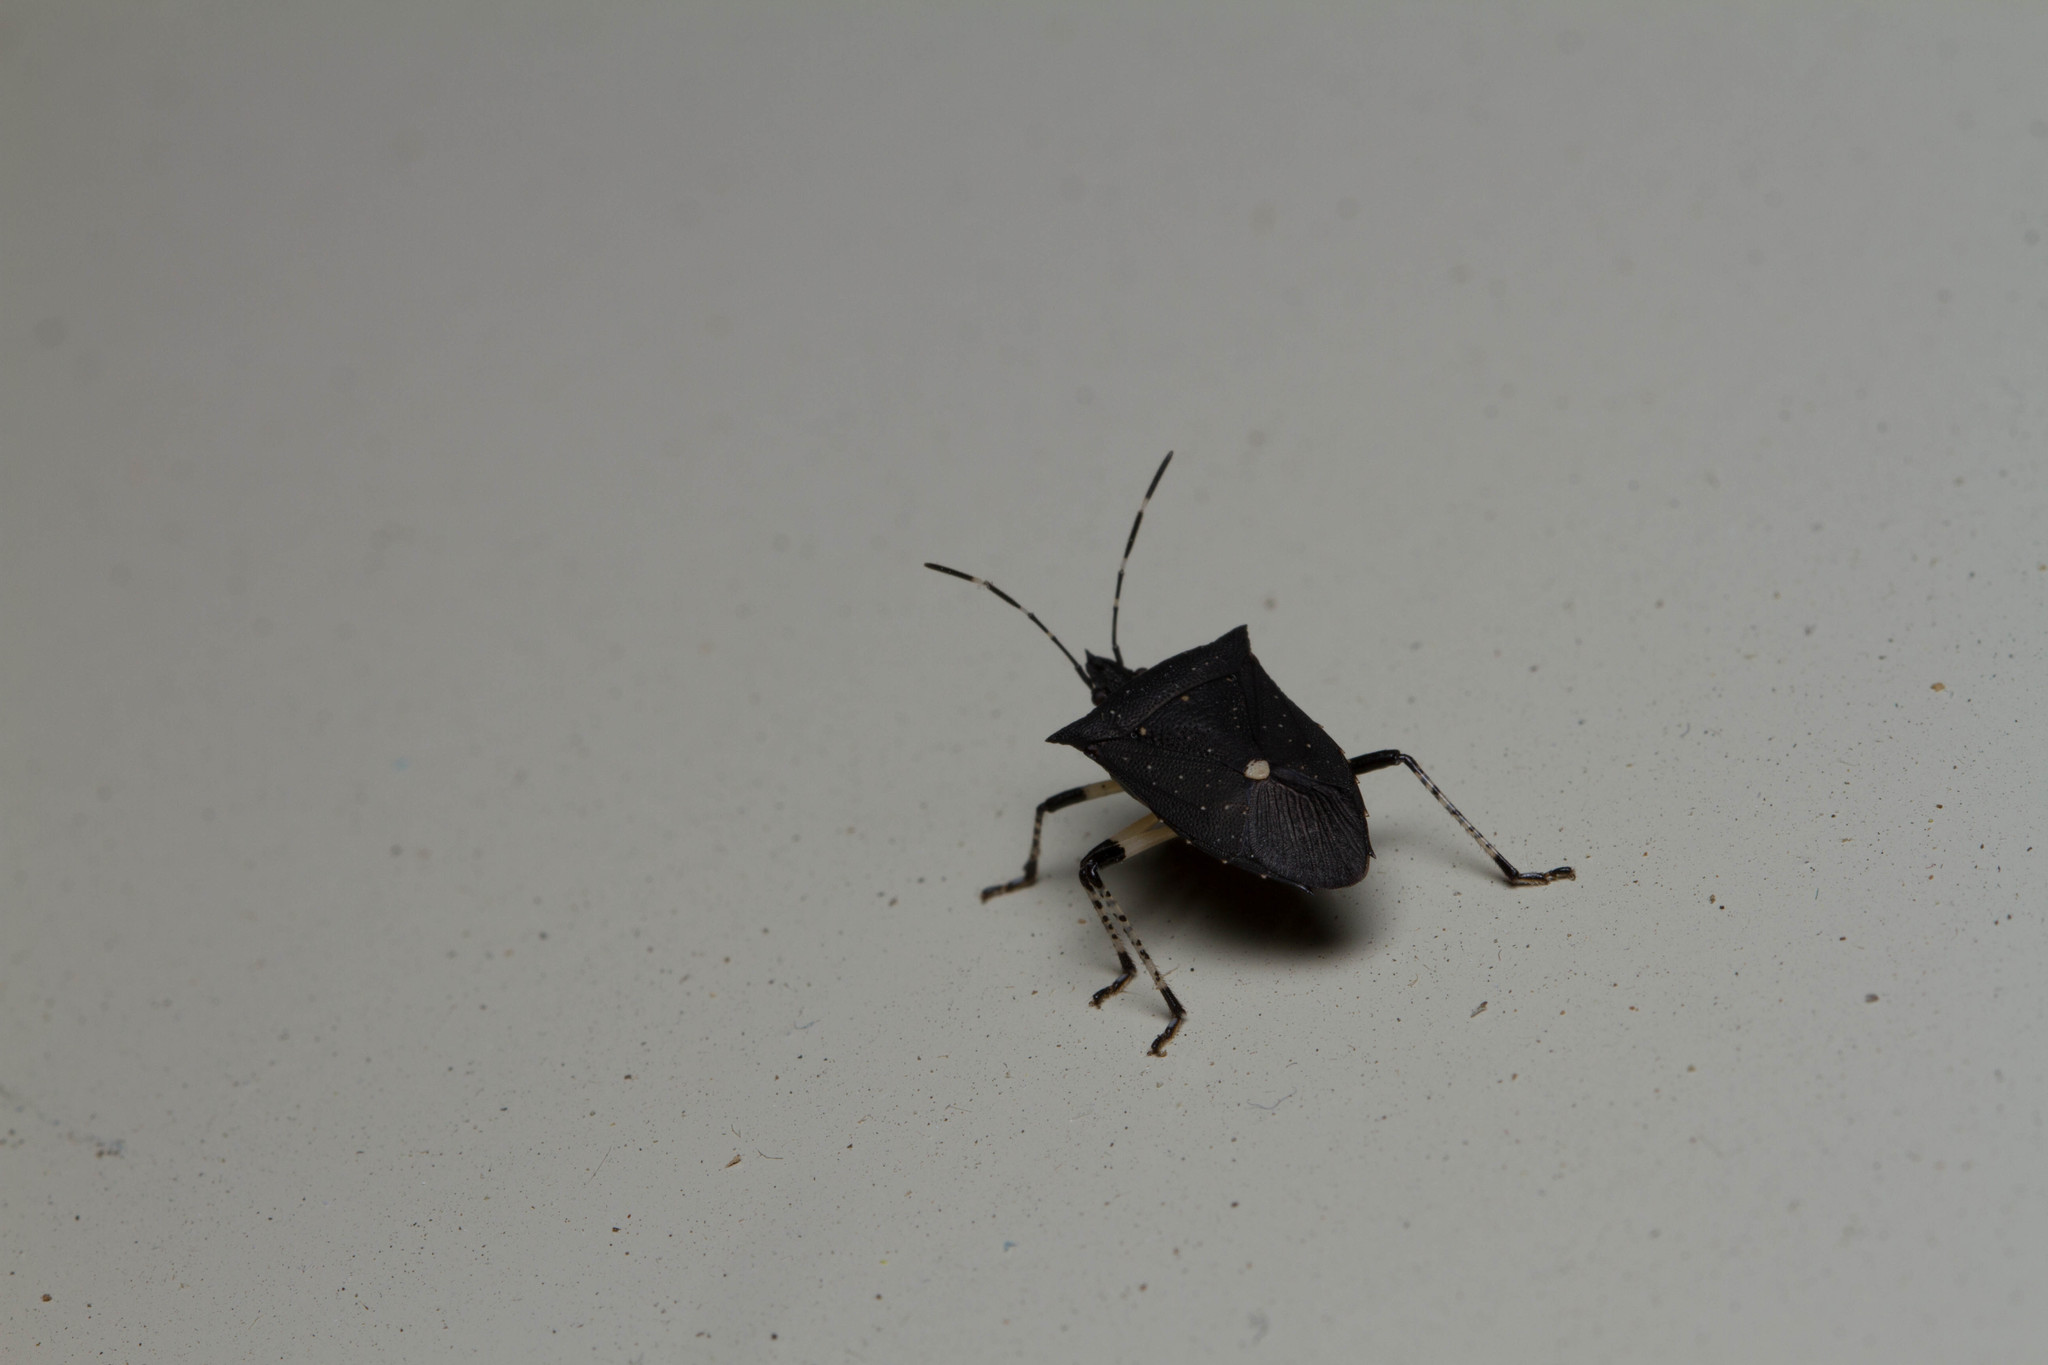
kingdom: Animalia
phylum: Arthropoda
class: Insecta
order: Hemiptera
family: Pentatomidae
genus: Proxys
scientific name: Proxys punctulatus
